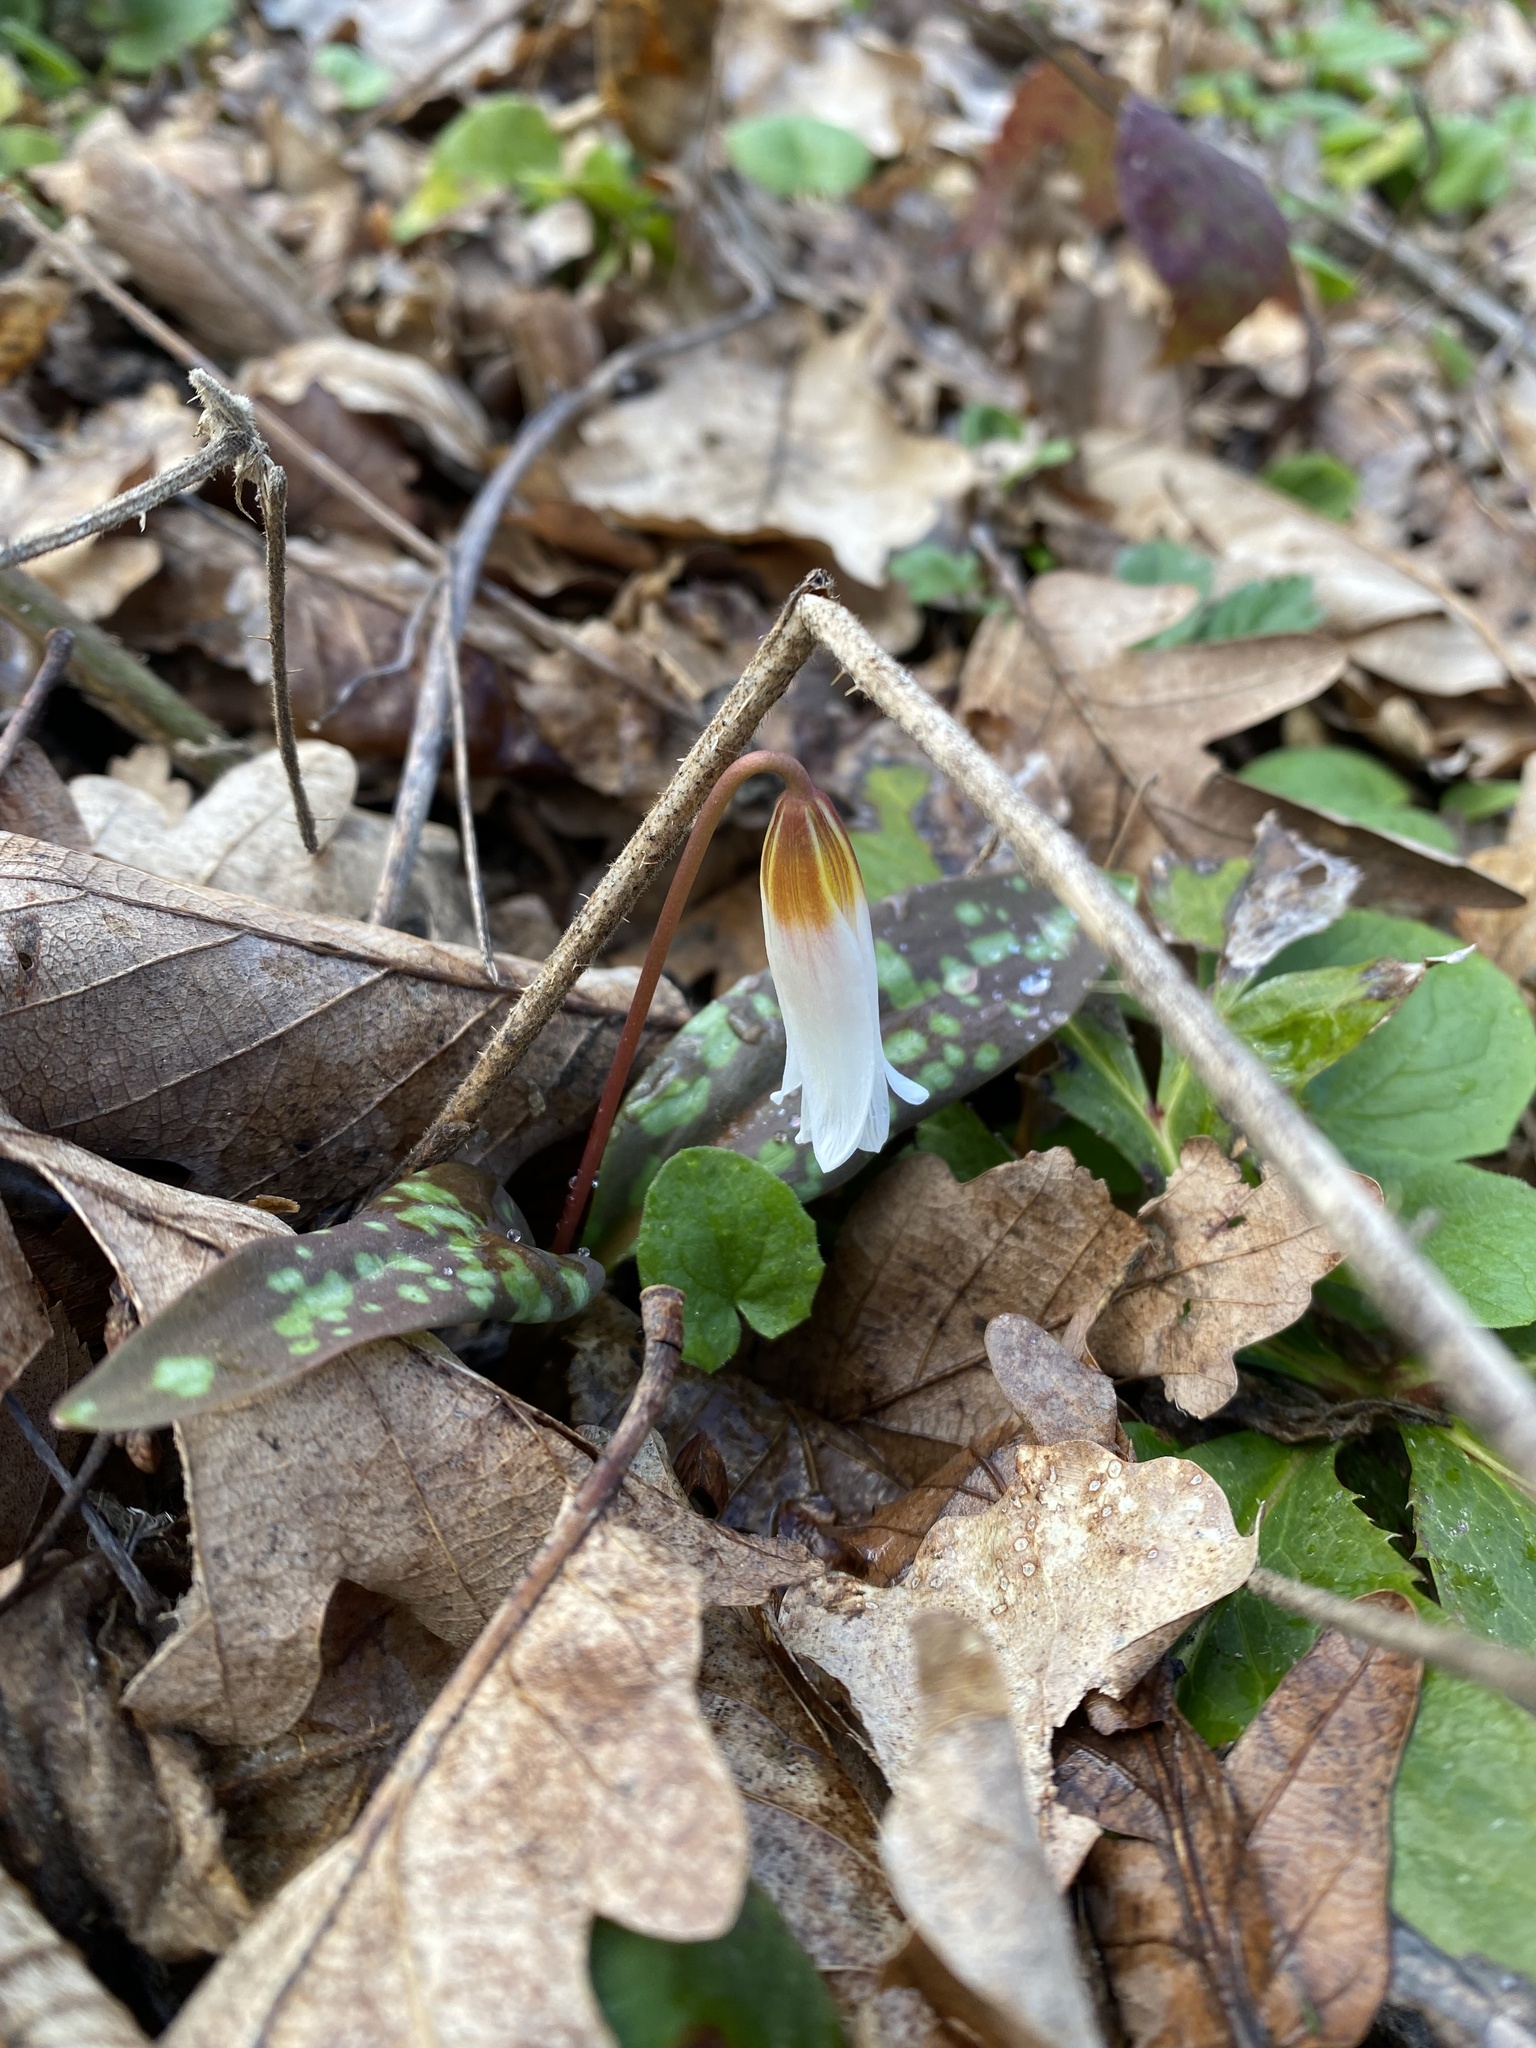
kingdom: Plantae
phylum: Tracheophyta
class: Liliopsida
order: Liliales
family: Liliaceae
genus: Erythronium
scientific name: Erythronium caucasicum
